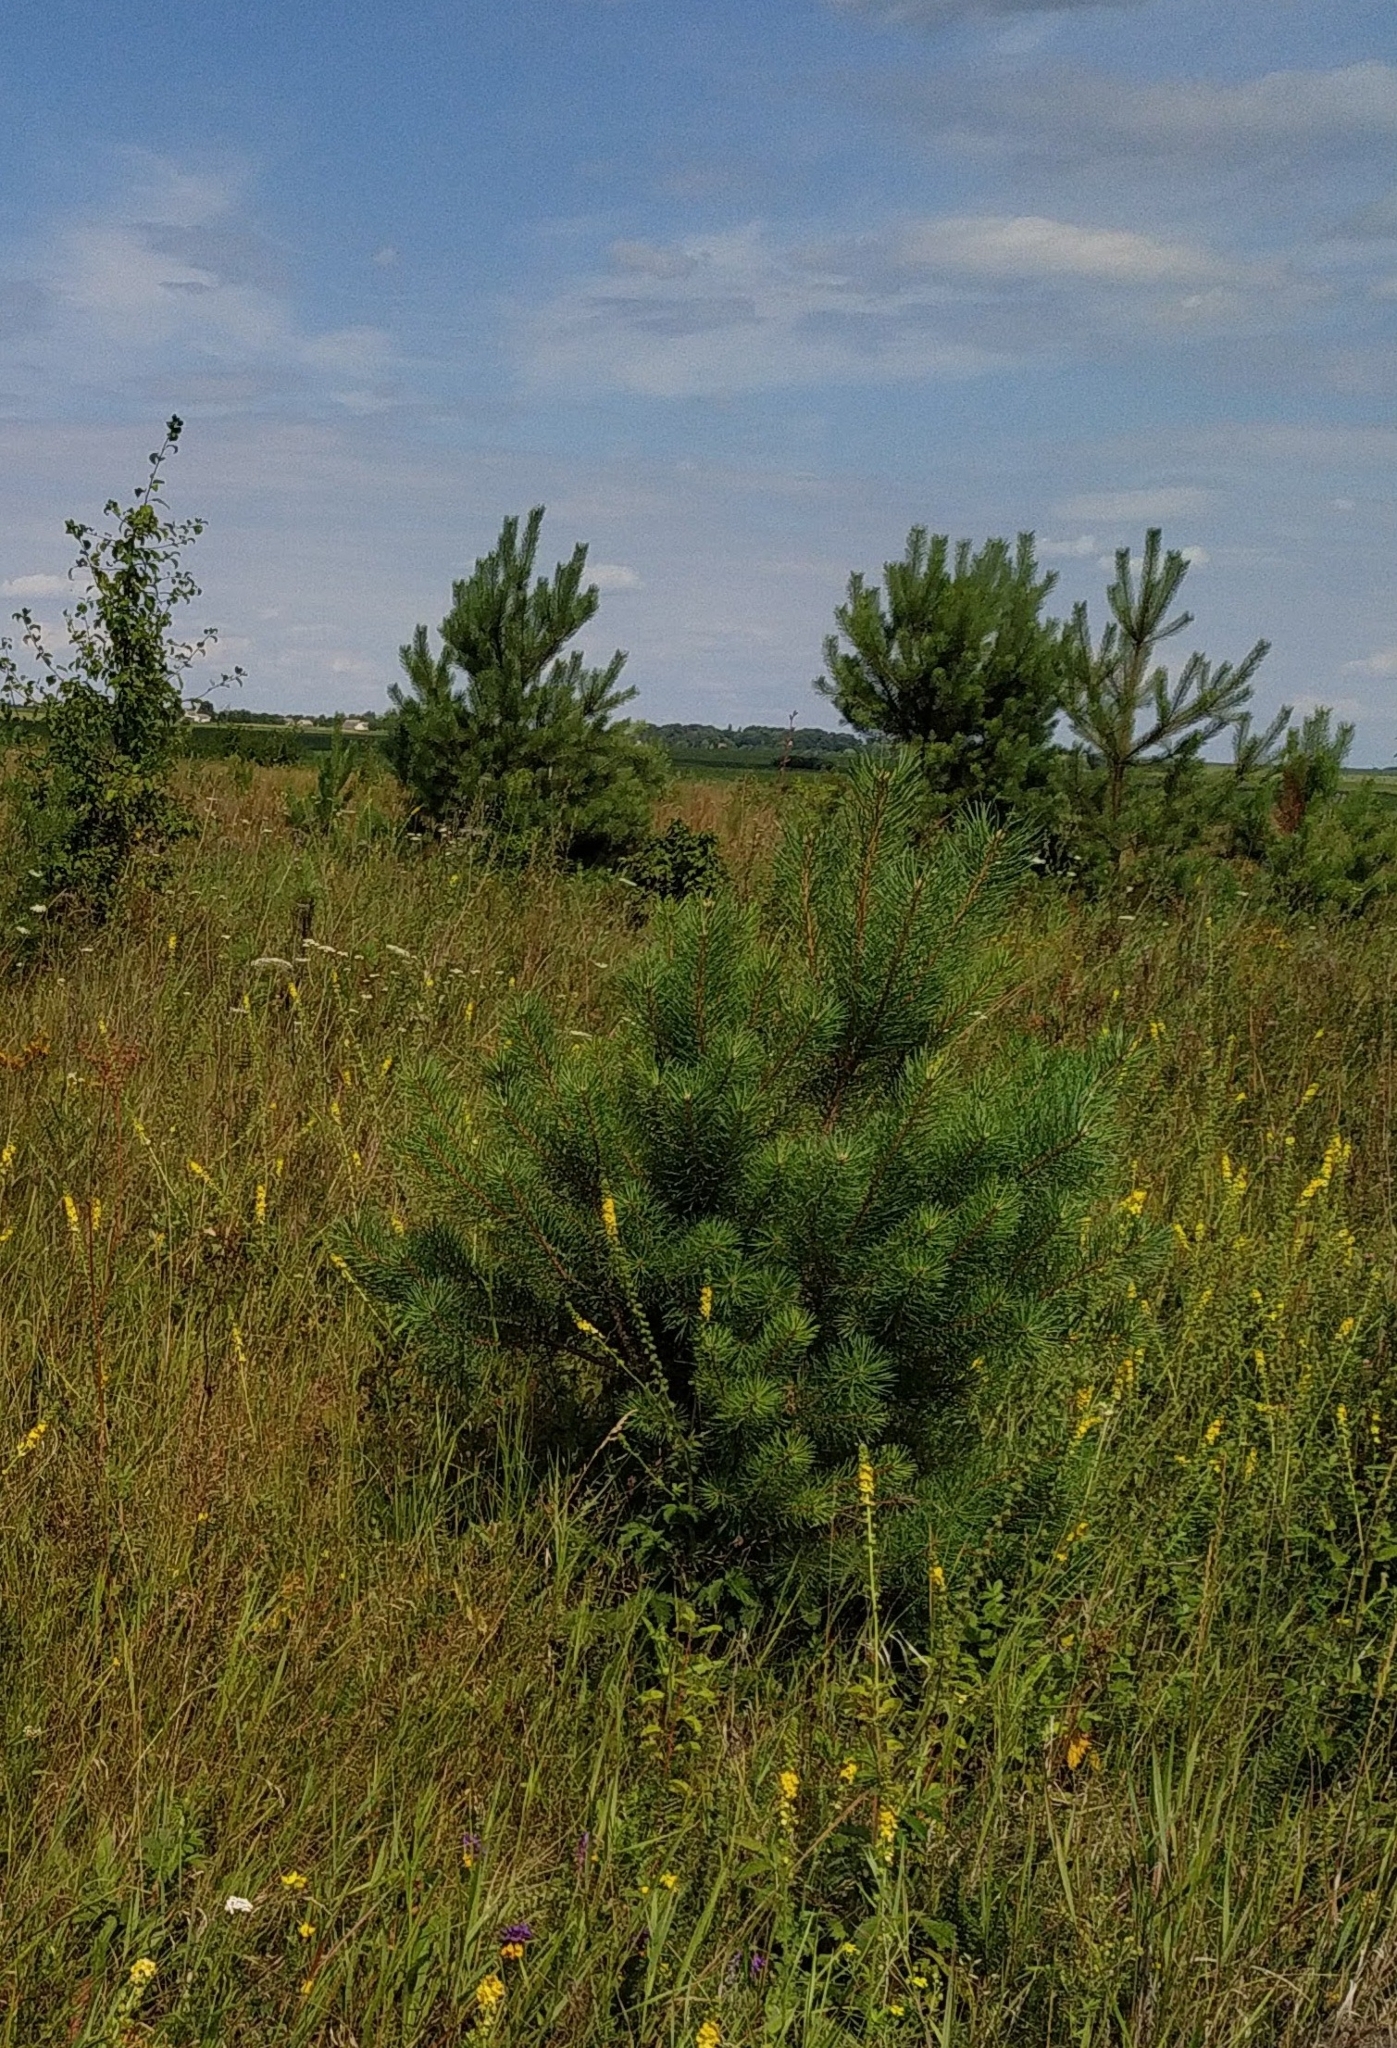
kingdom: Plantae
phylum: Tracheophyta
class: Pinopsida
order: Pinales
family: Pinaceae
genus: Pinus
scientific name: Pinus sylvestris
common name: Scots pine
